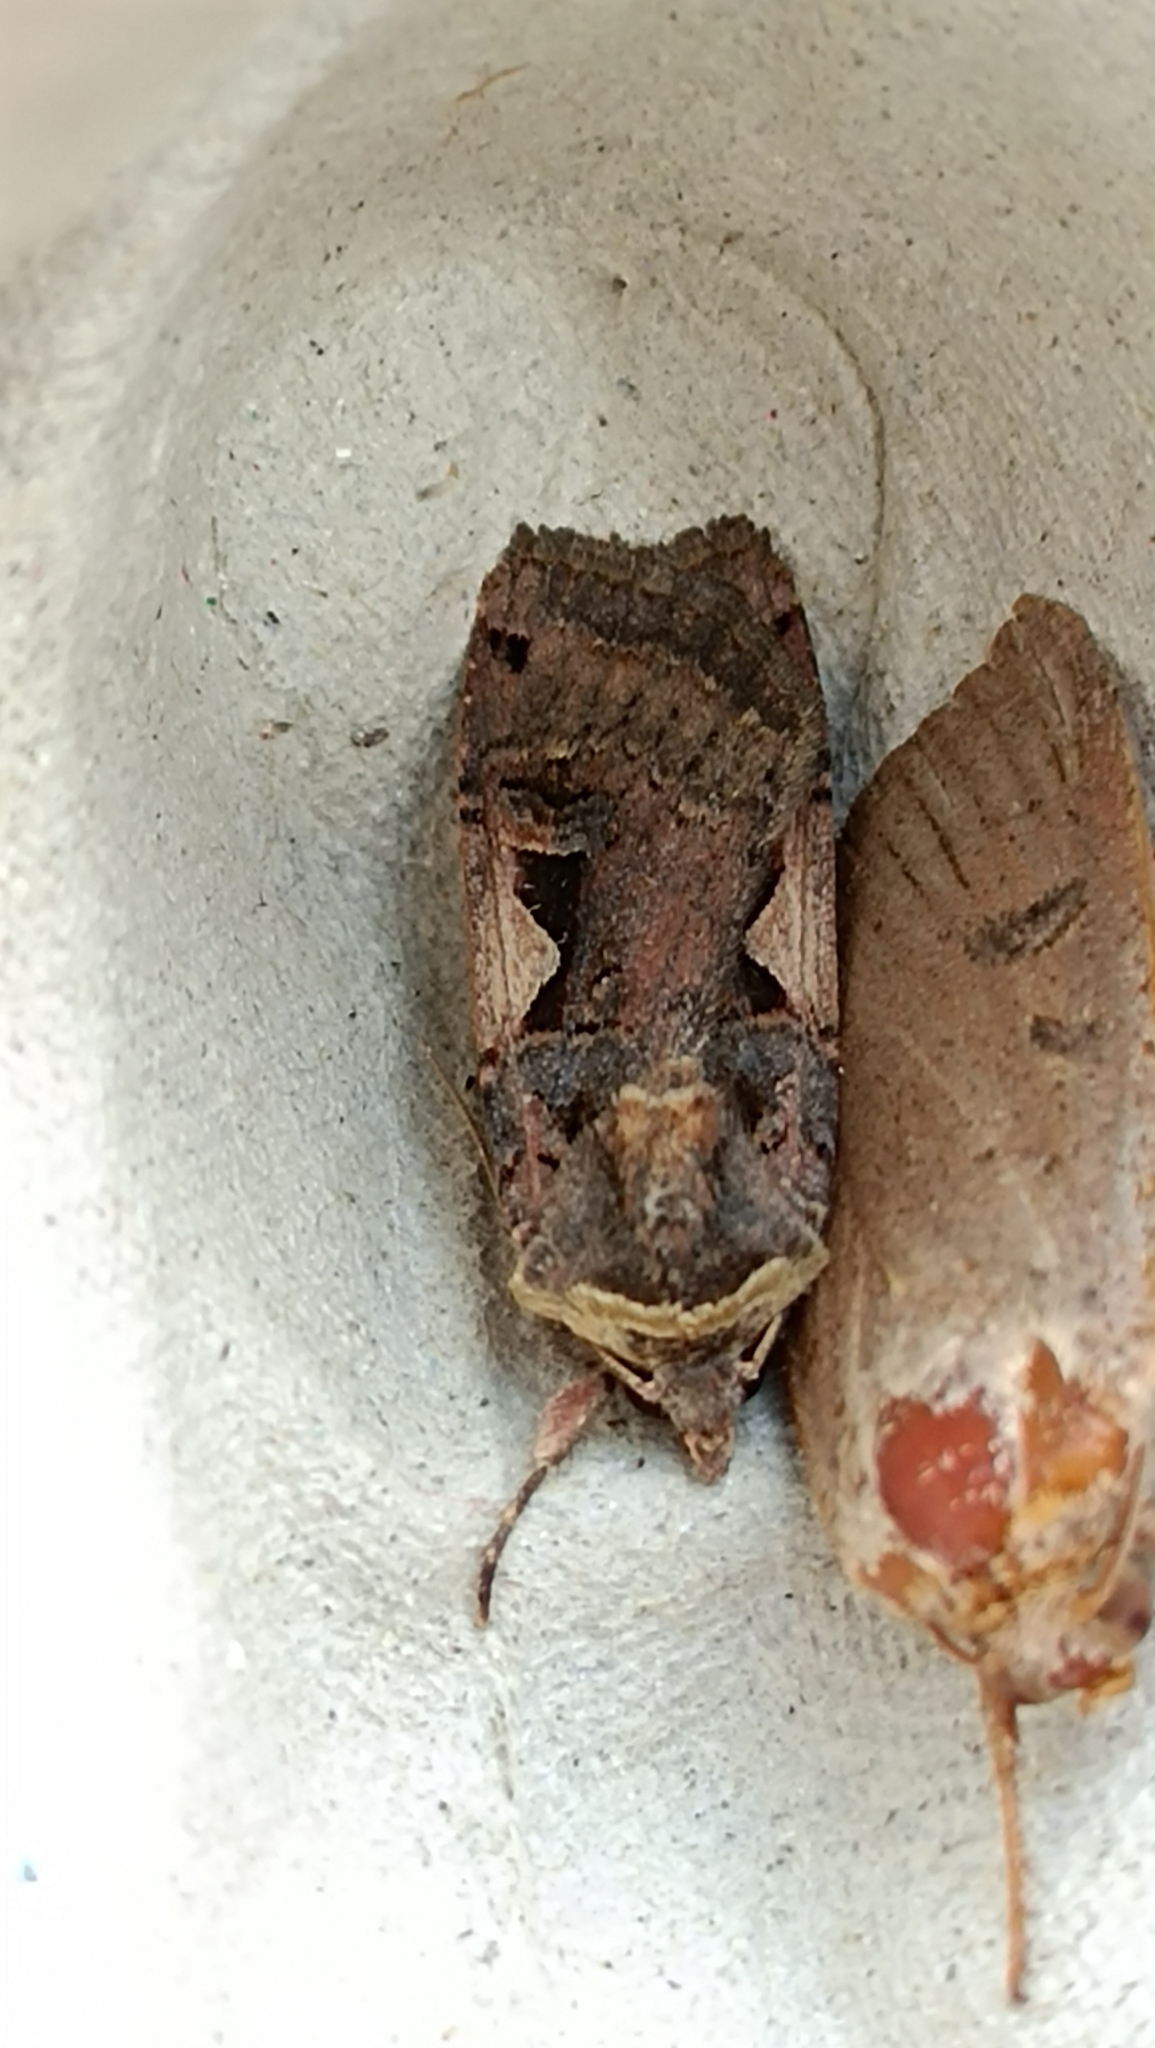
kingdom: Animalia
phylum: Arthropoda
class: Insecta
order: Lepidoptera
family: Noctuidae
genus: Xestia
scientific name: Xestia c-nigrum
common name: Setaceous hebrew character
